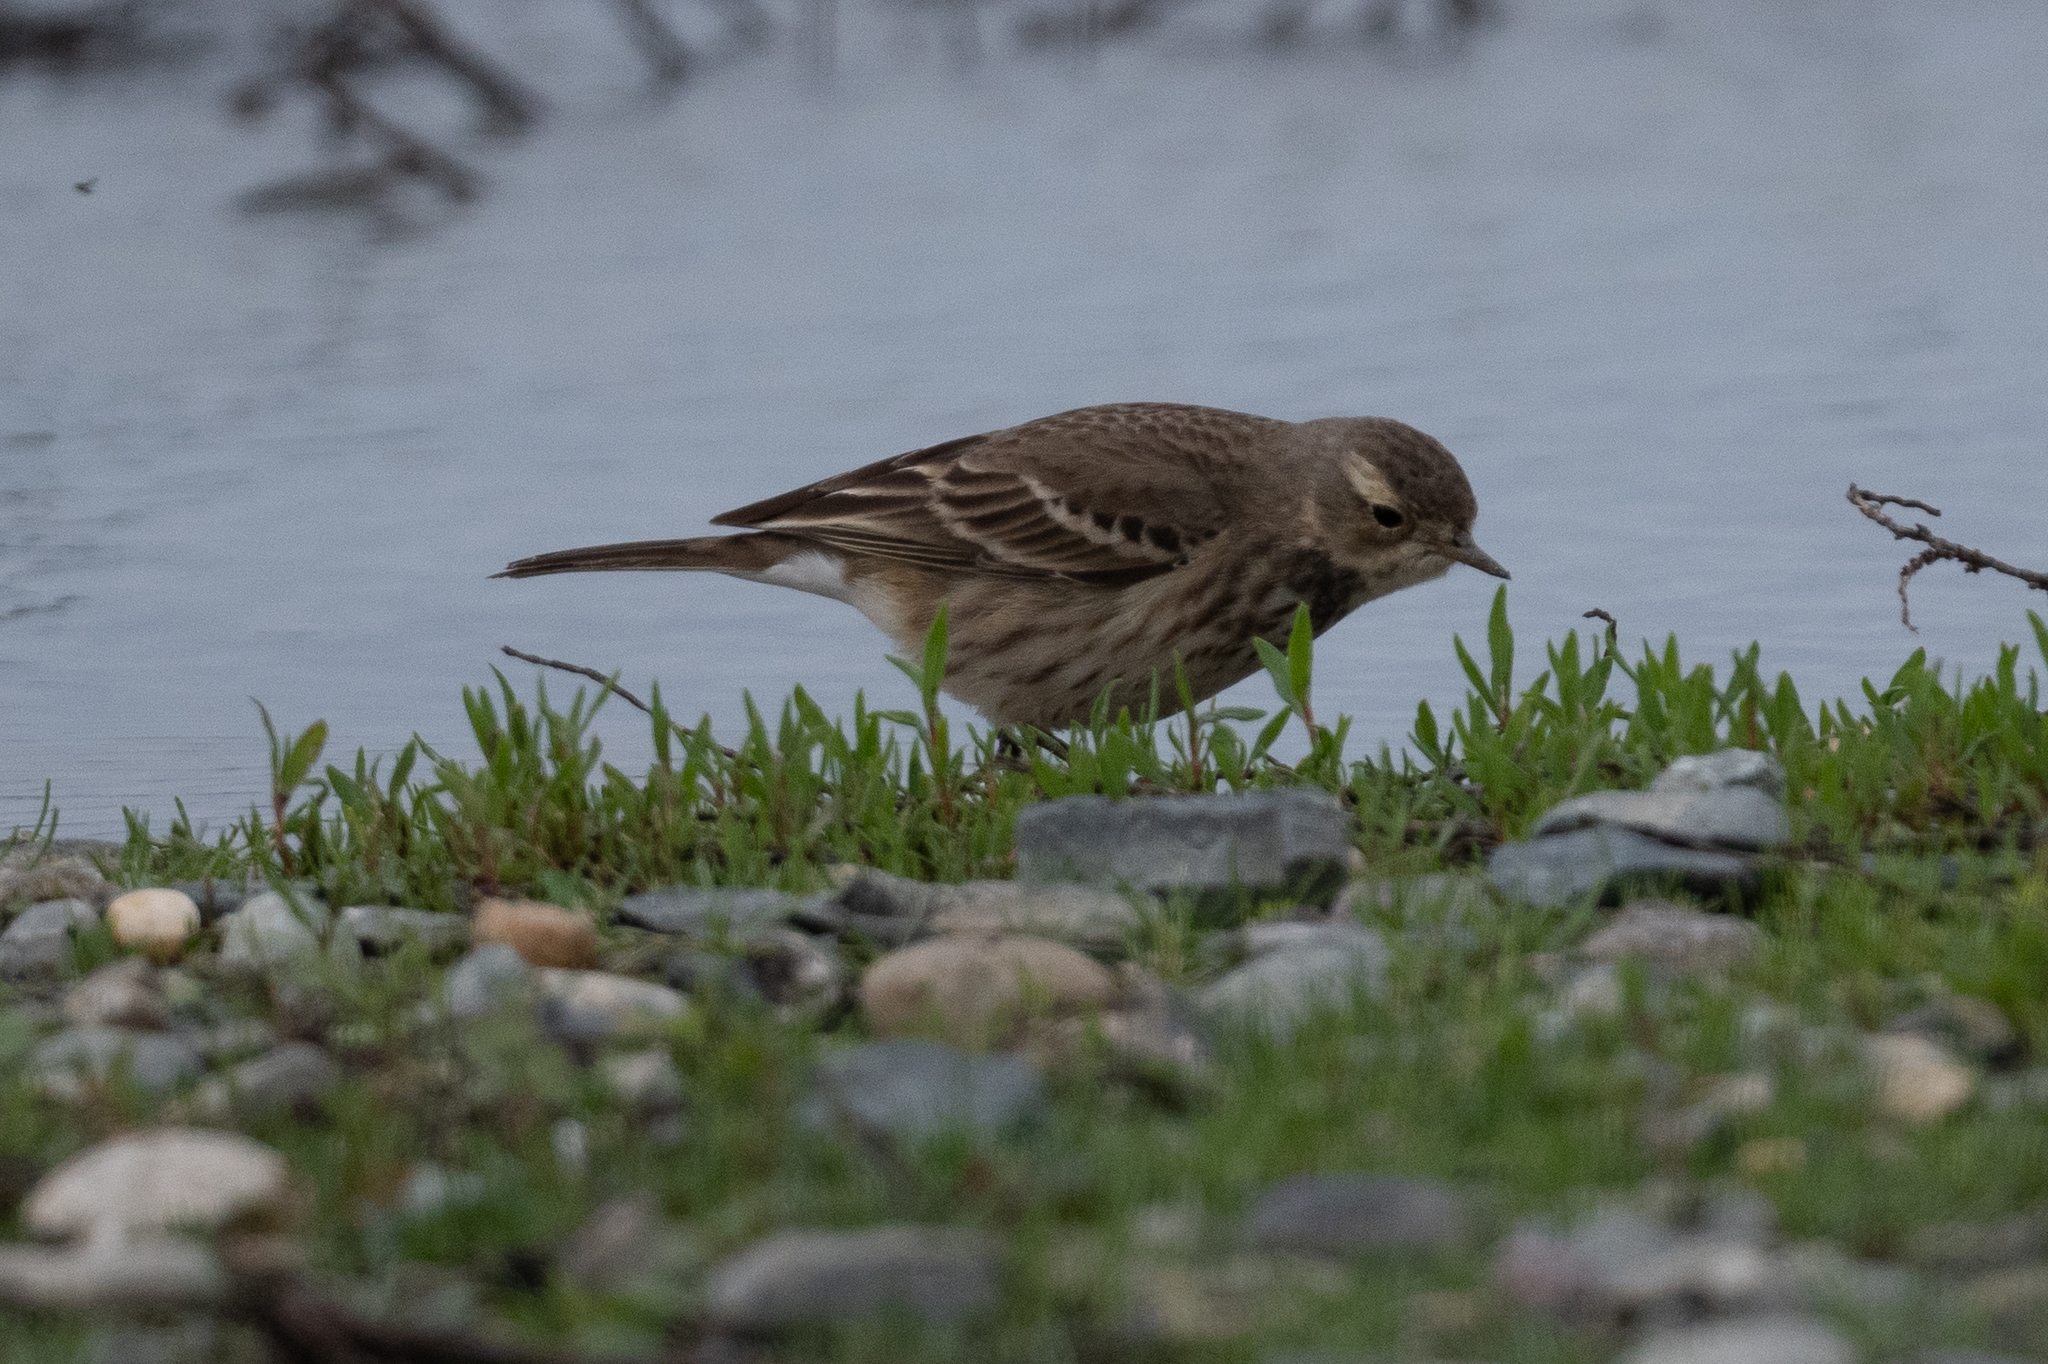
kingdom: Animalia
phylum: Chordata
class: Aves
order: Passeriformes
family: Motacillidae
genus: Anthus
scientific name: Anthus rubescens
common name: Buff-bellied pipit
